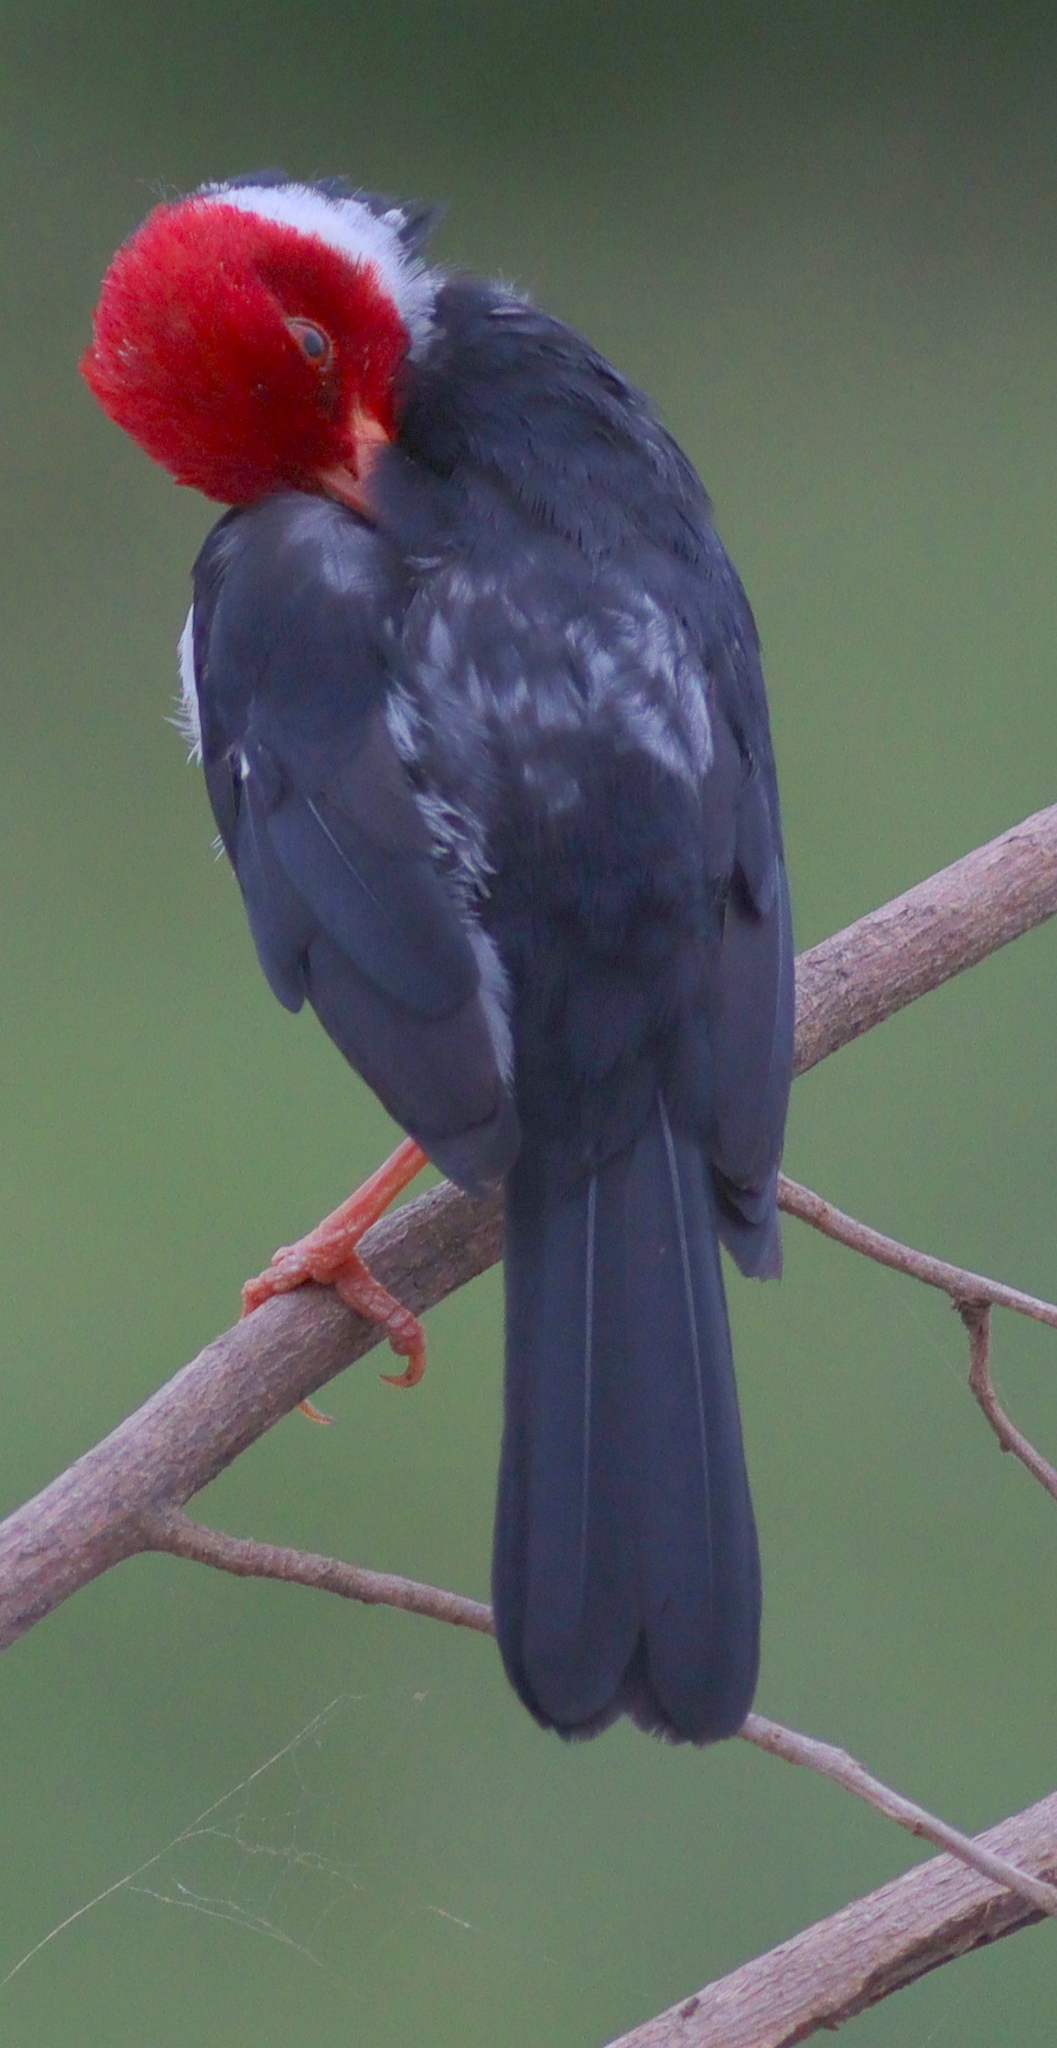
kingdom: Animalia
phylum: Chordata
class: Aves
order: Passeriformes
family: Thraupidae
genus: Paroaria
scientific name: Paroaria capitata
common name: Yellow-billed cardinal
